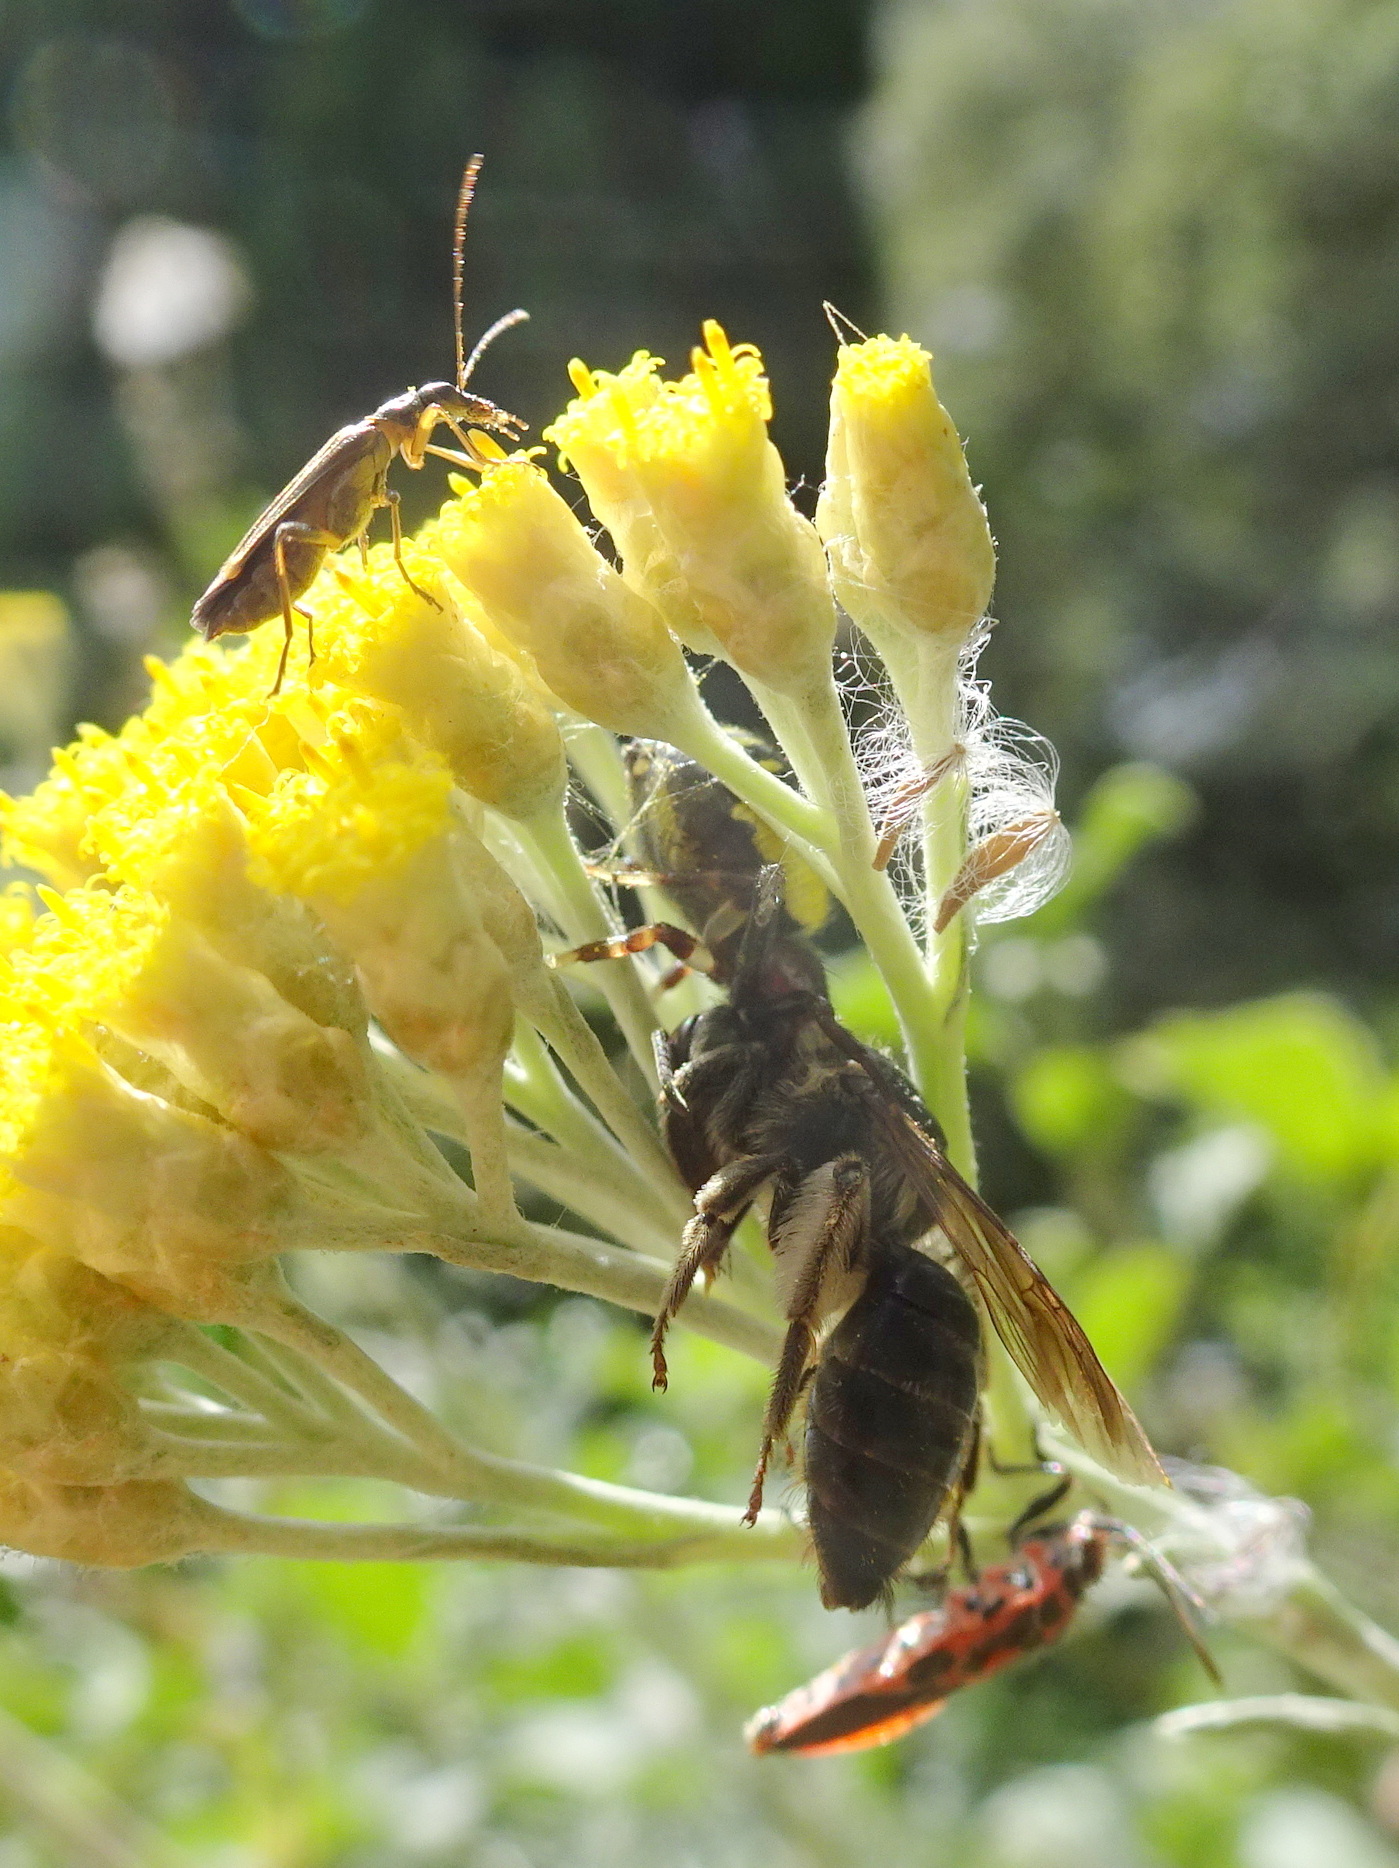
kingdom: Animalia
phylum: Arthropoda
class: Arachnida
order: Araneae
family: Thomisidae
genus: Synema
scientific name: Synema globosum
